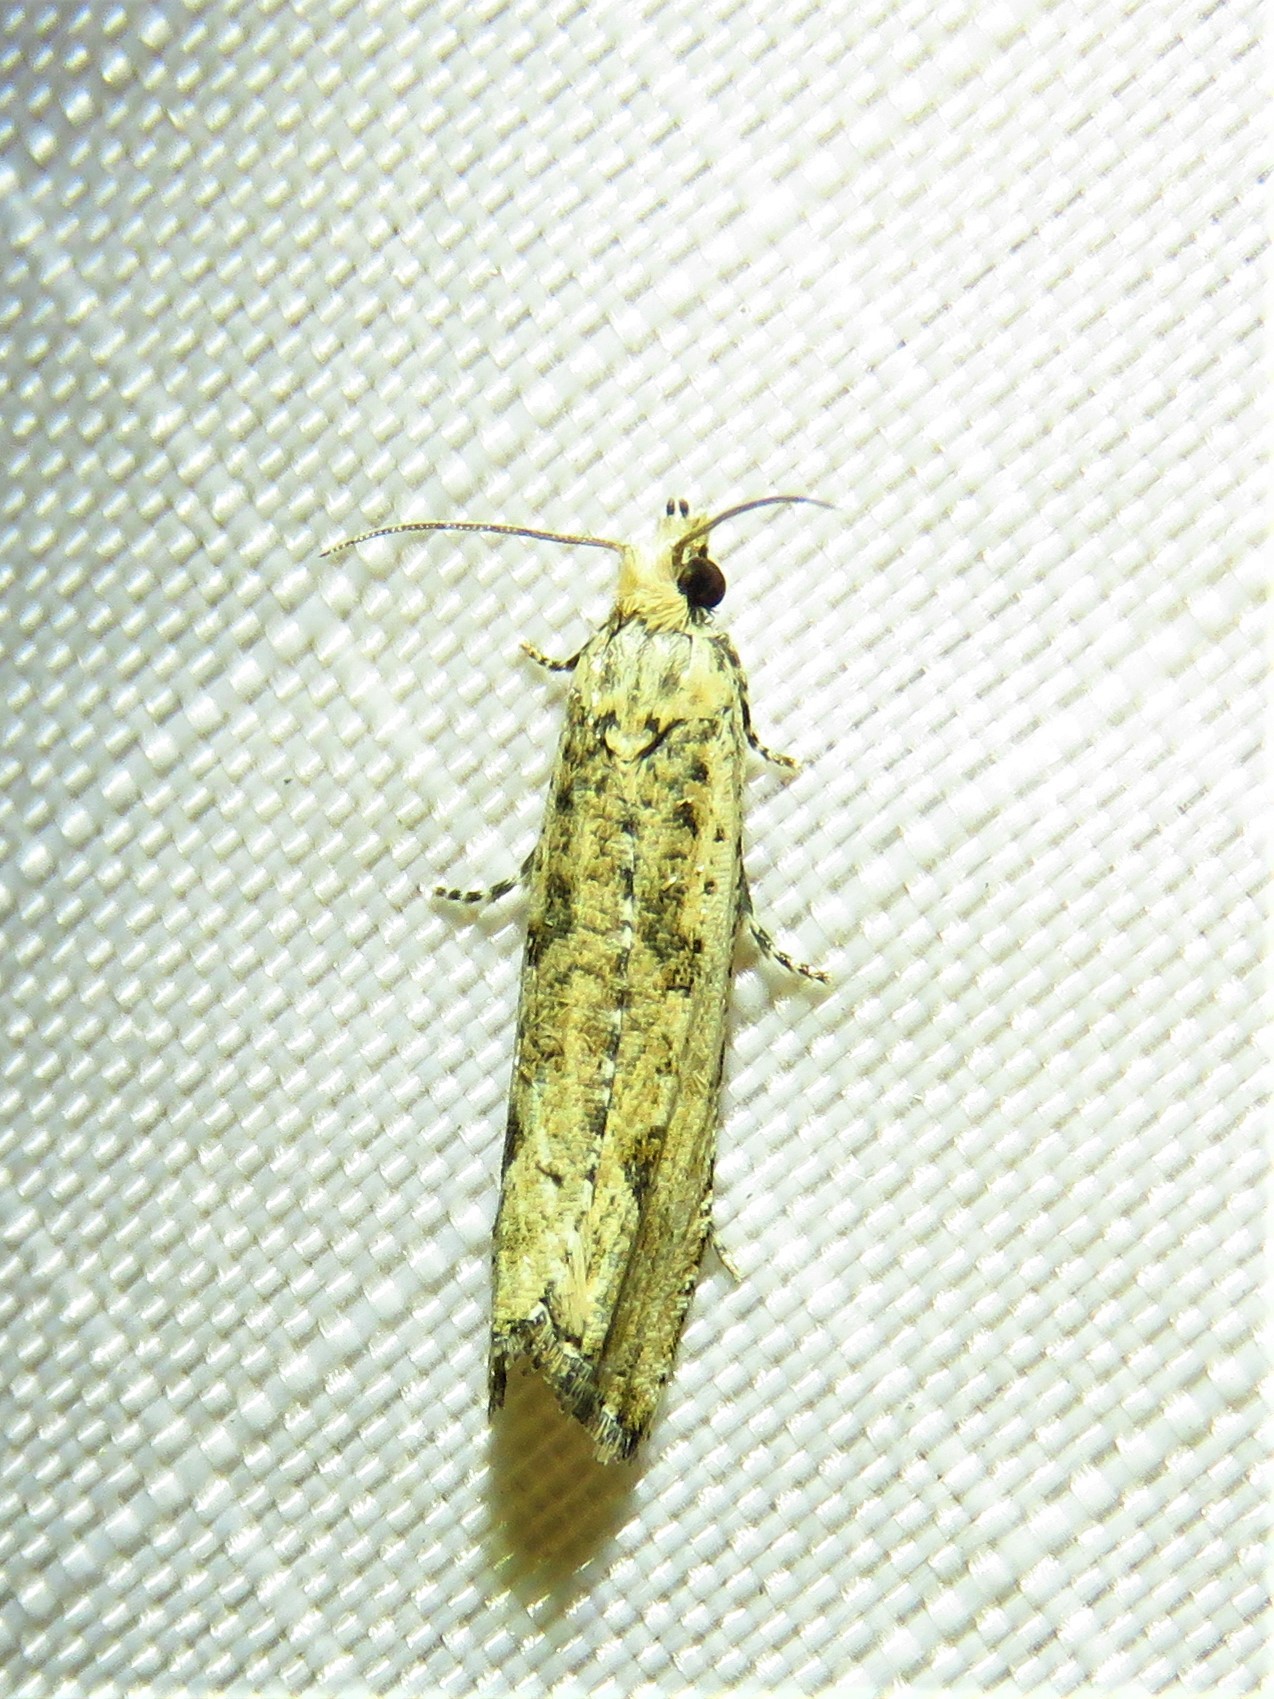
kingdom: Animalia
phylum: Arthropoda
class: Insecta
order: Lepidoptera
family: Tortricidae
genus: Bactra
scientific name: Bactra verutana
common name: Javelin moth
